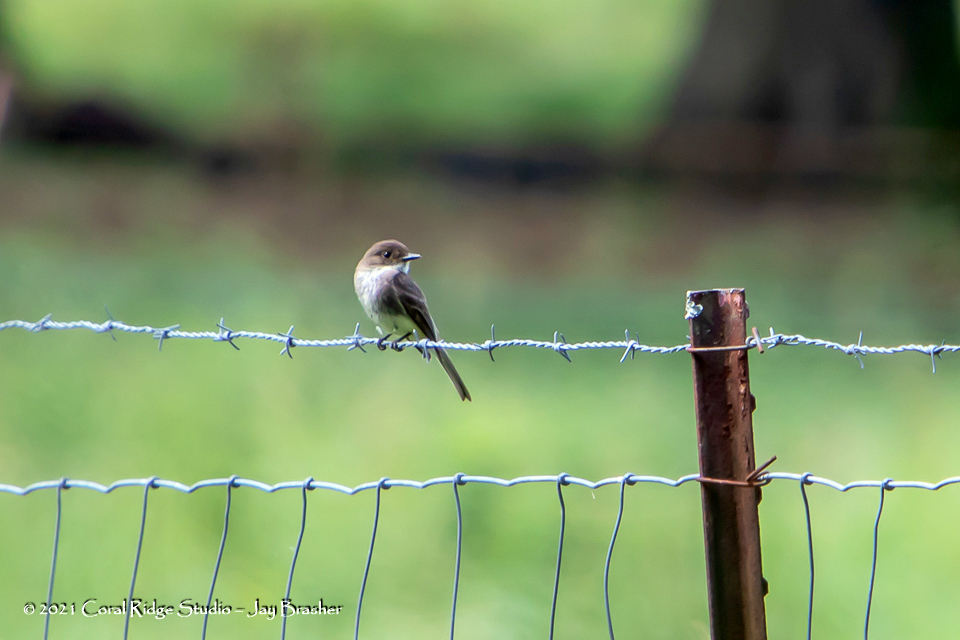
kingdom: Animalia
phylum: Chordata
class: Aves
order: Passeriformes
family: Tyrannidae
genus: Sayornis
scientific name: Sayornis phoebe
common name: Eastern phoebe
